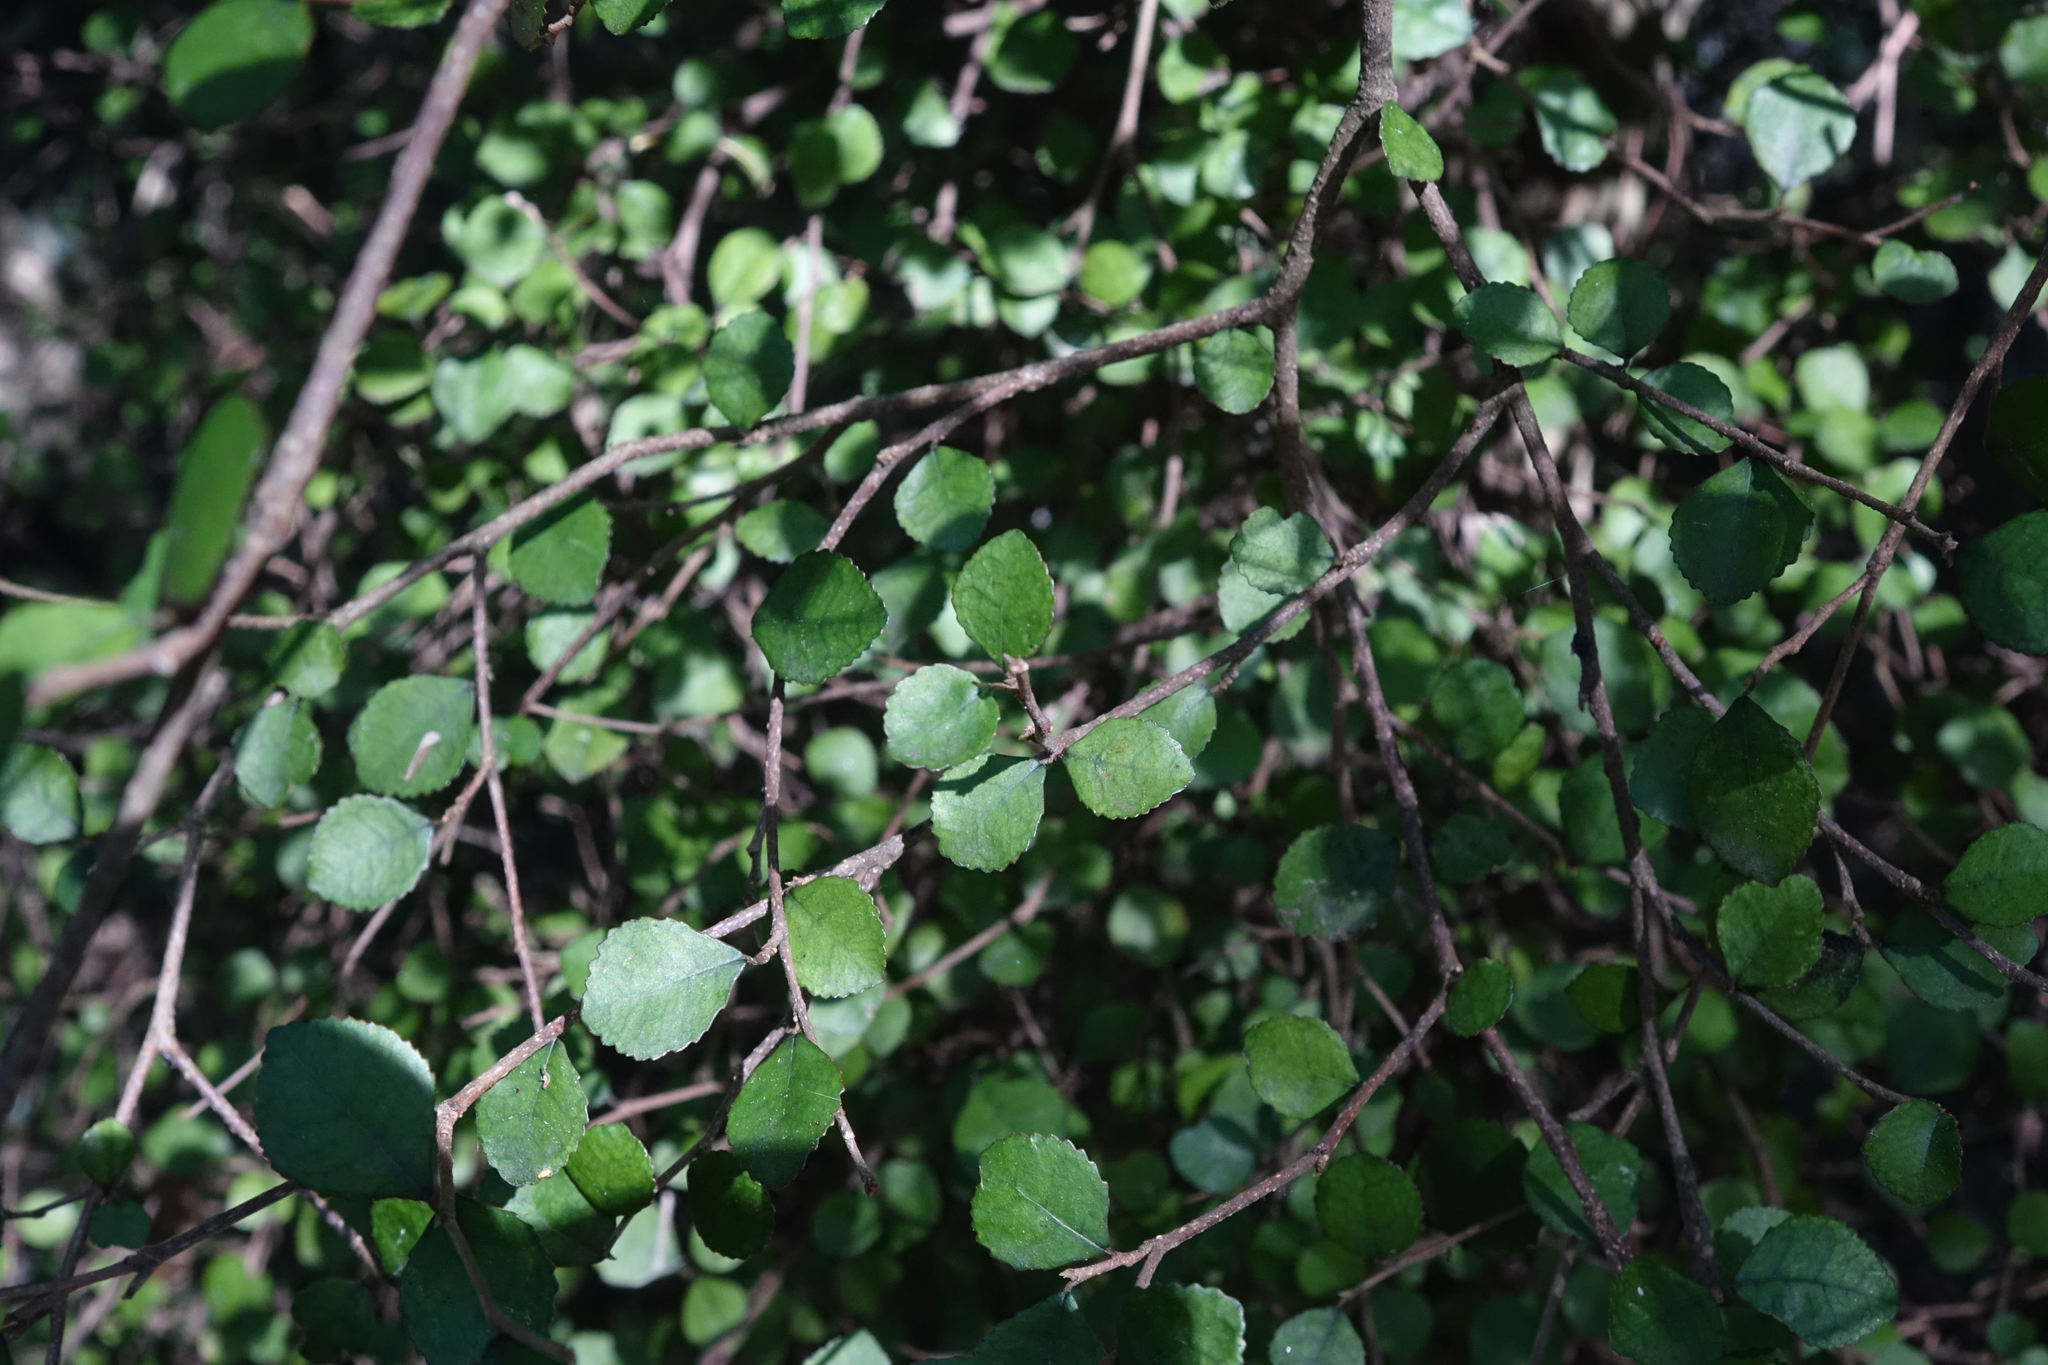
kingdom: Plantae
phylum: Tracheophyta
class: Magnoliopsida
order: Rosales
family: Moraceae
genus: Paratrophis
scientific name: Paratrophis microphylla
